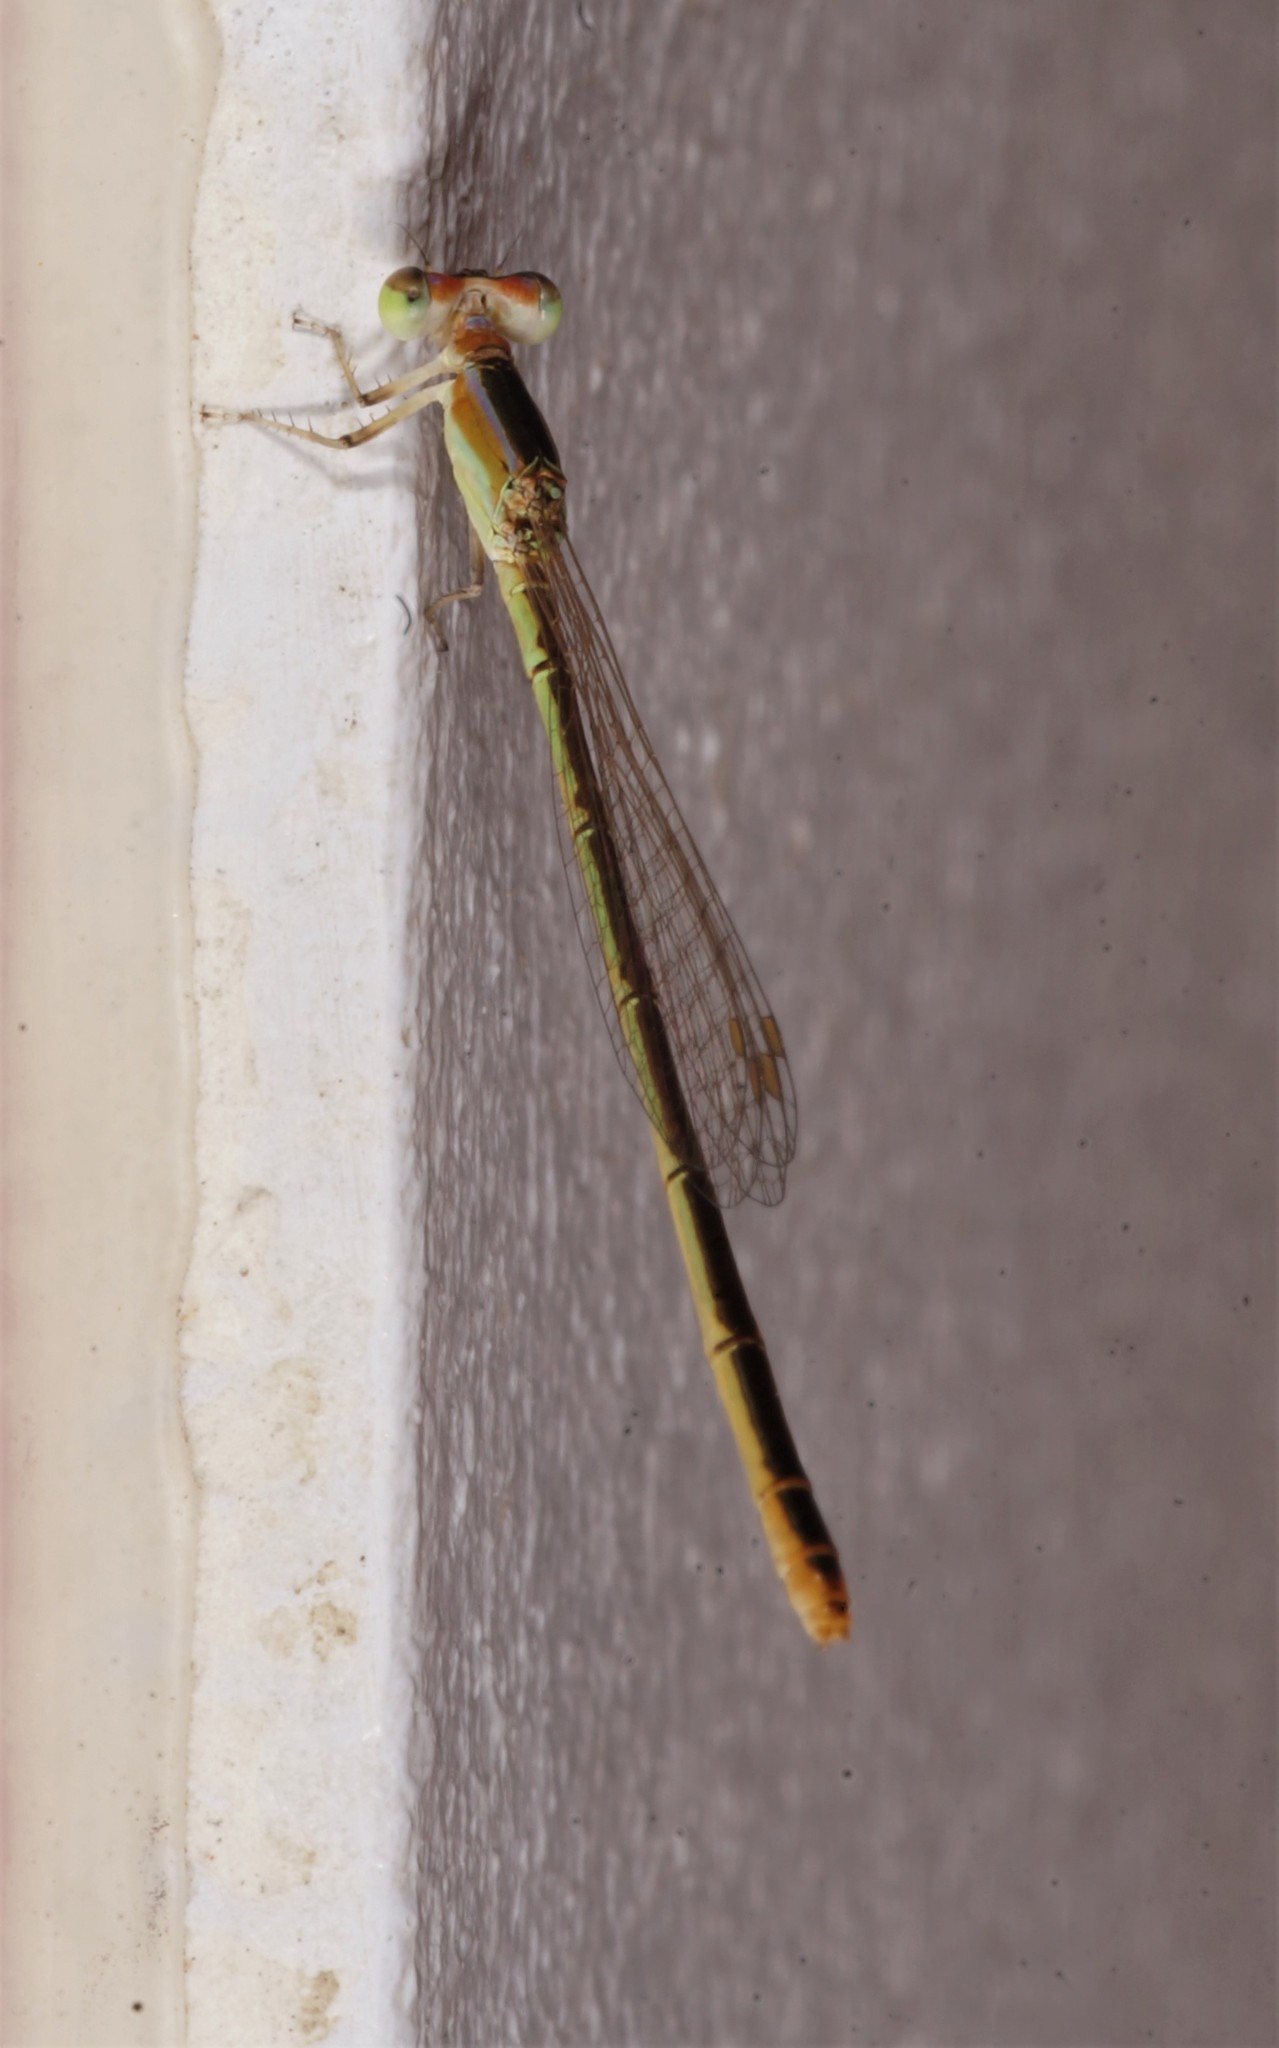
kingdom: Animalia
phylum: Arthropoda
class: Insecta
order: Odonata
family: Coenagrionidae
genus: Agriocnemis
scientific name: Agriocnemis pygmaea
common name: Pygmy wisp
